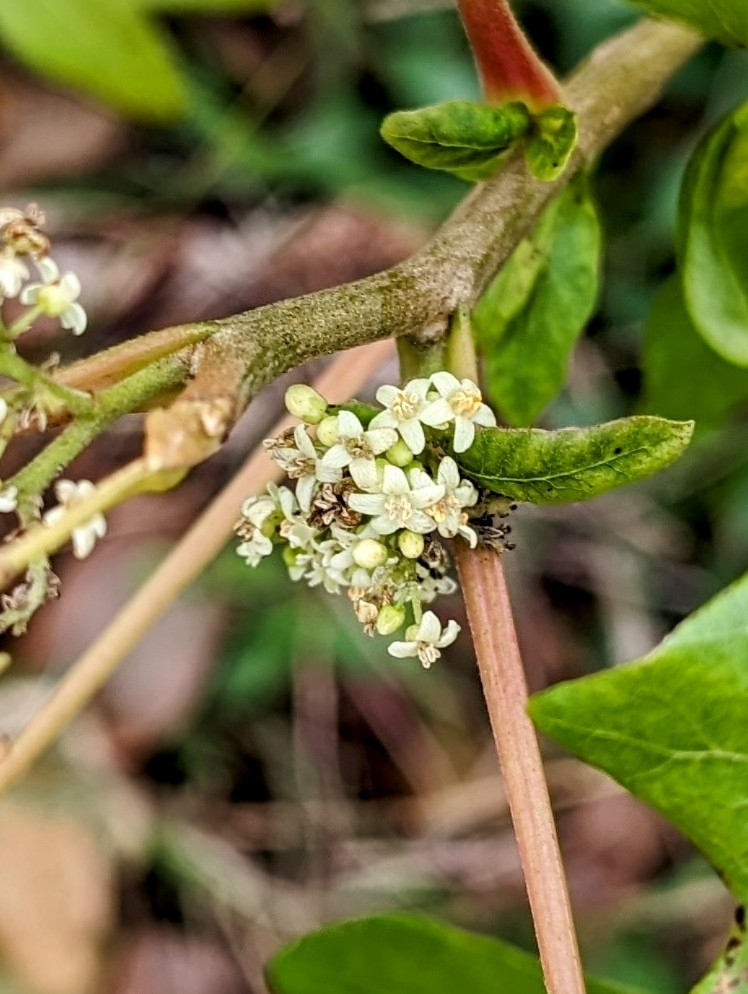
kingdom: Plantae
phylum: Tracheophyta
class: Magnoliopsida
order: Sapindales
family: Anacardiaceae
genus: Toxicodendron
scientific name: Toxicodendron radicans
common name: Poison ivy
